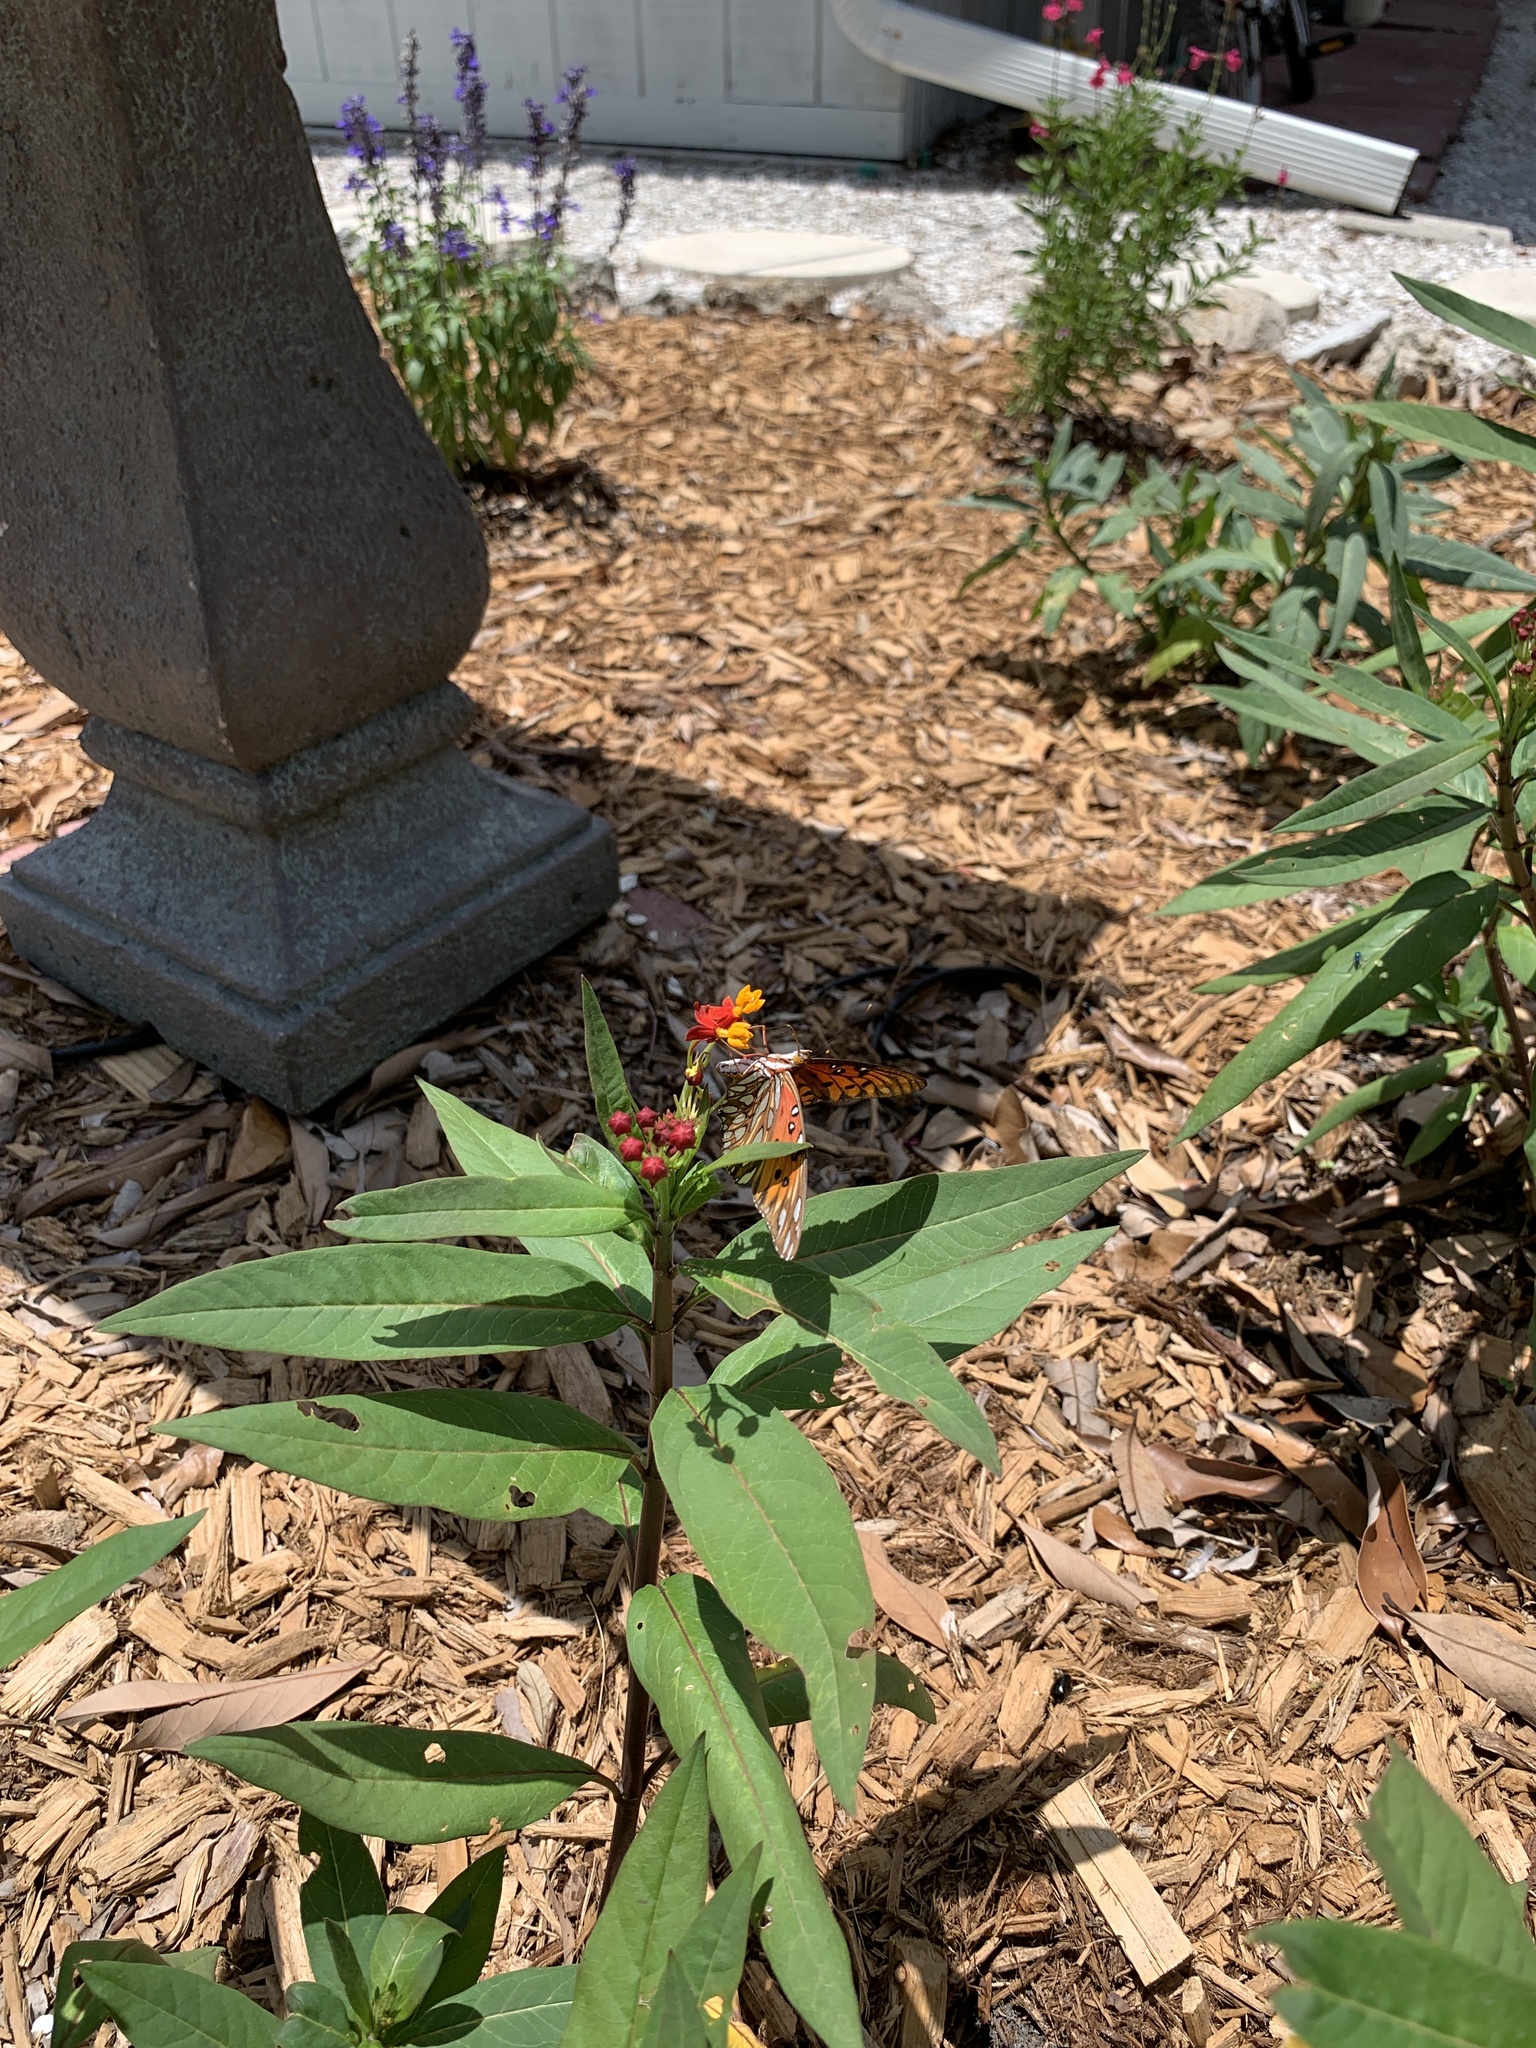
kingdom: Animalia
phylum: Arthropoda
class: Insecta
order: Lepidoptera
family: Nymphalidae
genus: Dione
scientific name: Dione vanillae
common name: Gulf fritillary
